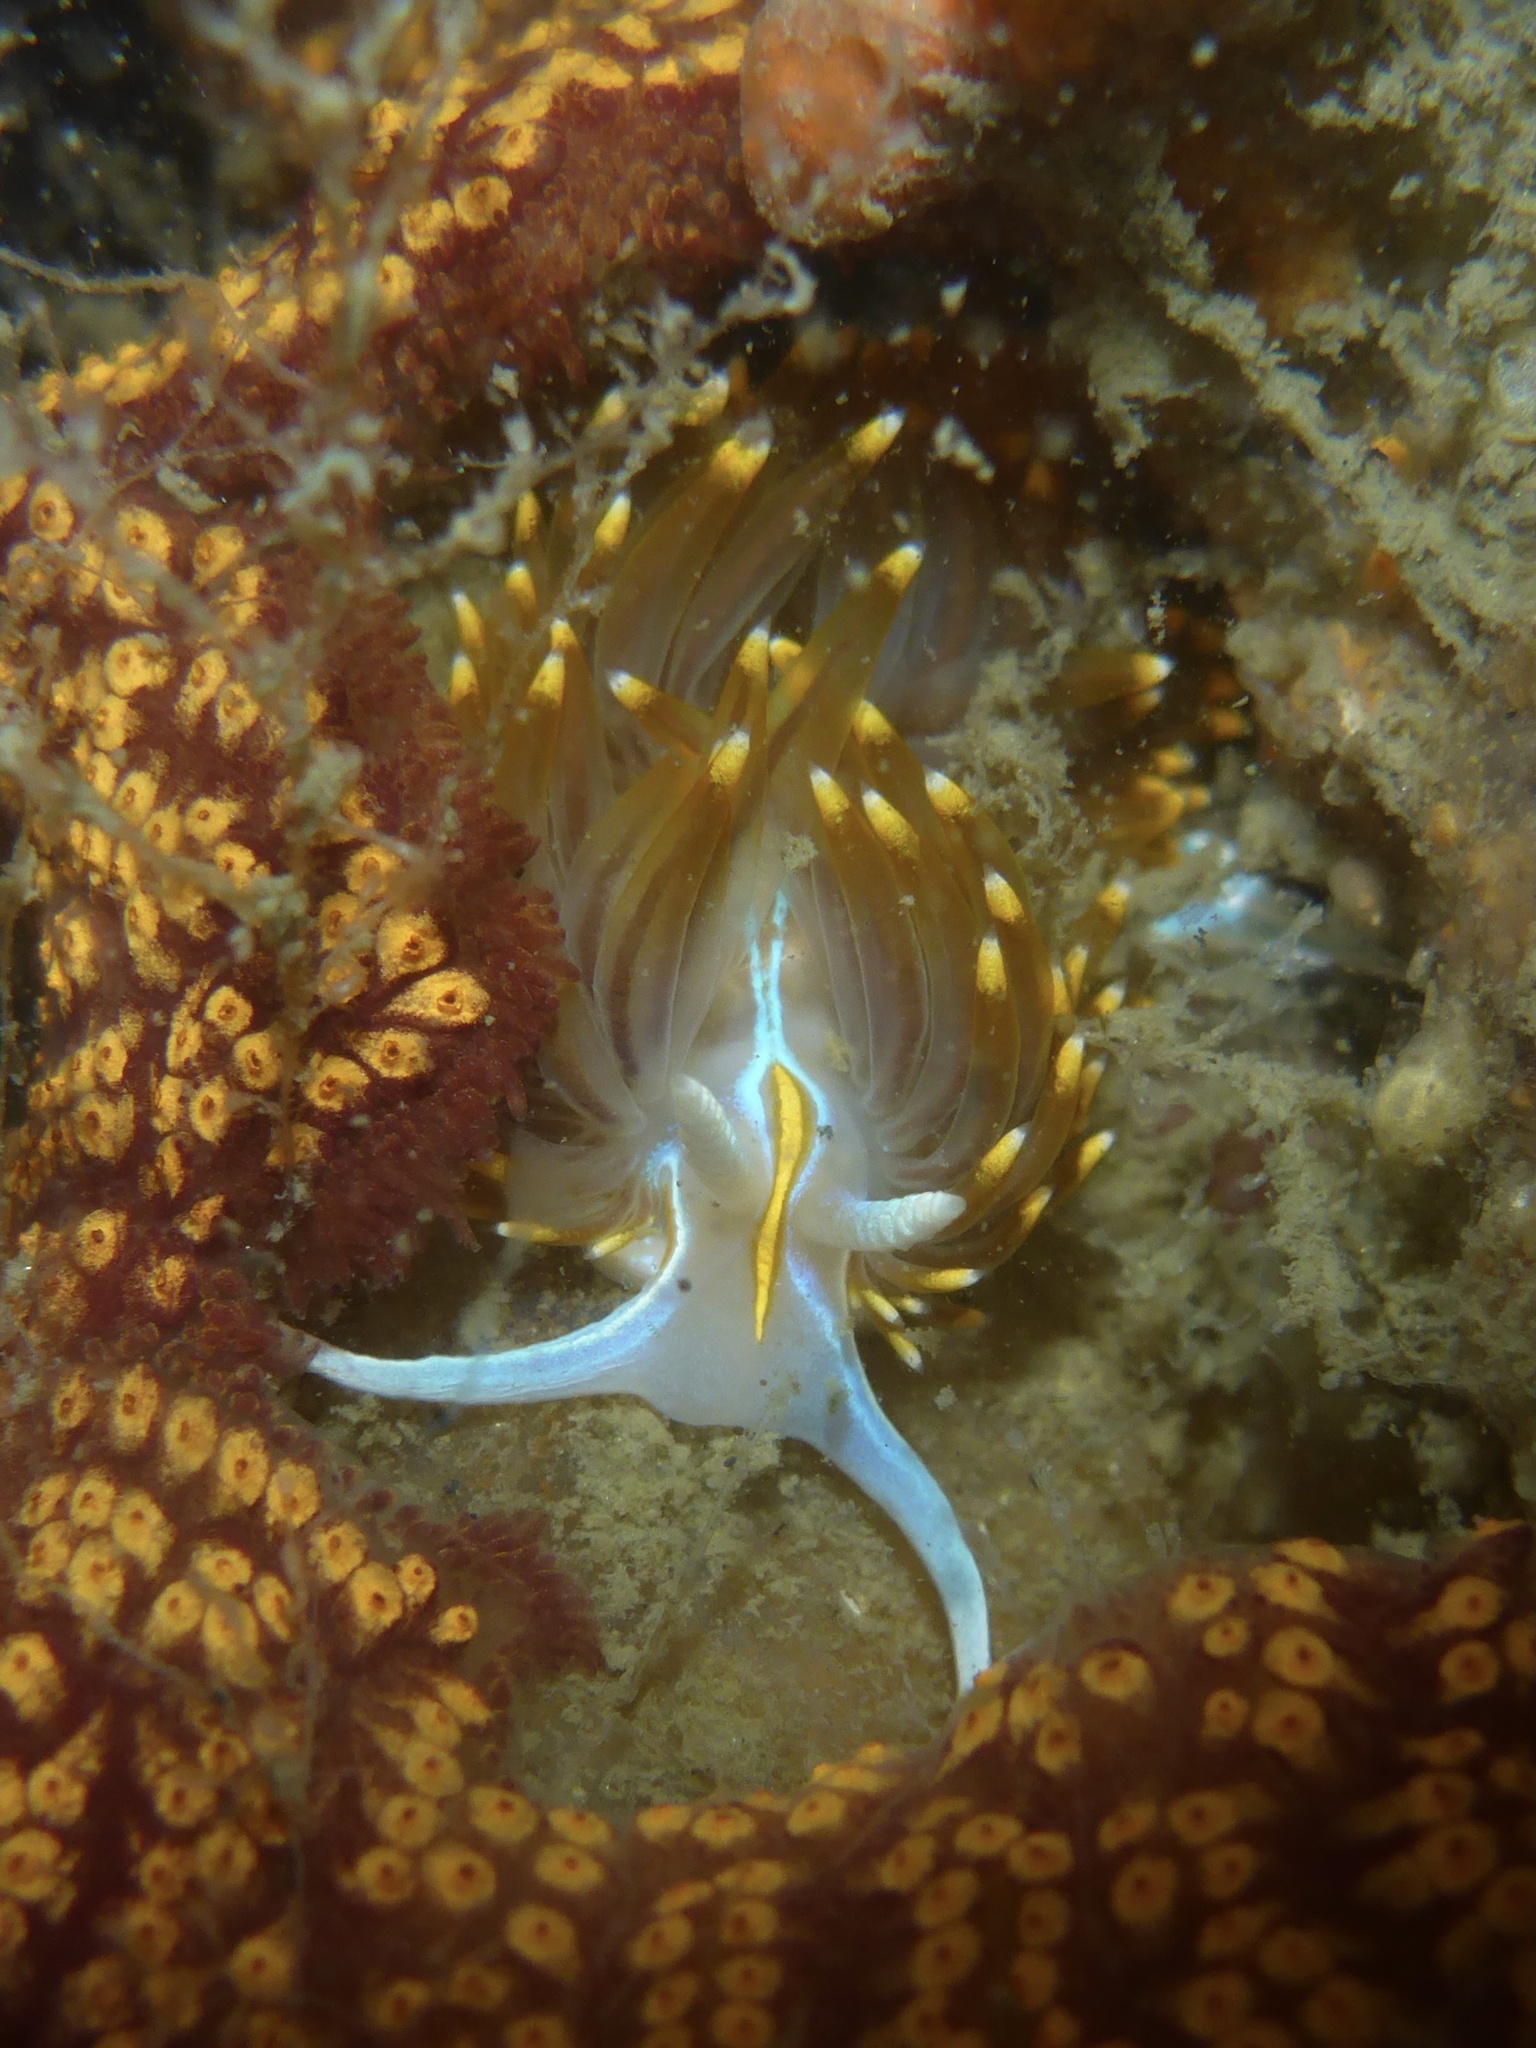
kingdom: Animalia
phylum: Mollusca
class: Gastropoda
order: Nudibranchia
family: Myrrhinidae
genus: Hermissenda
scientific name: Hermissenda opalescens
